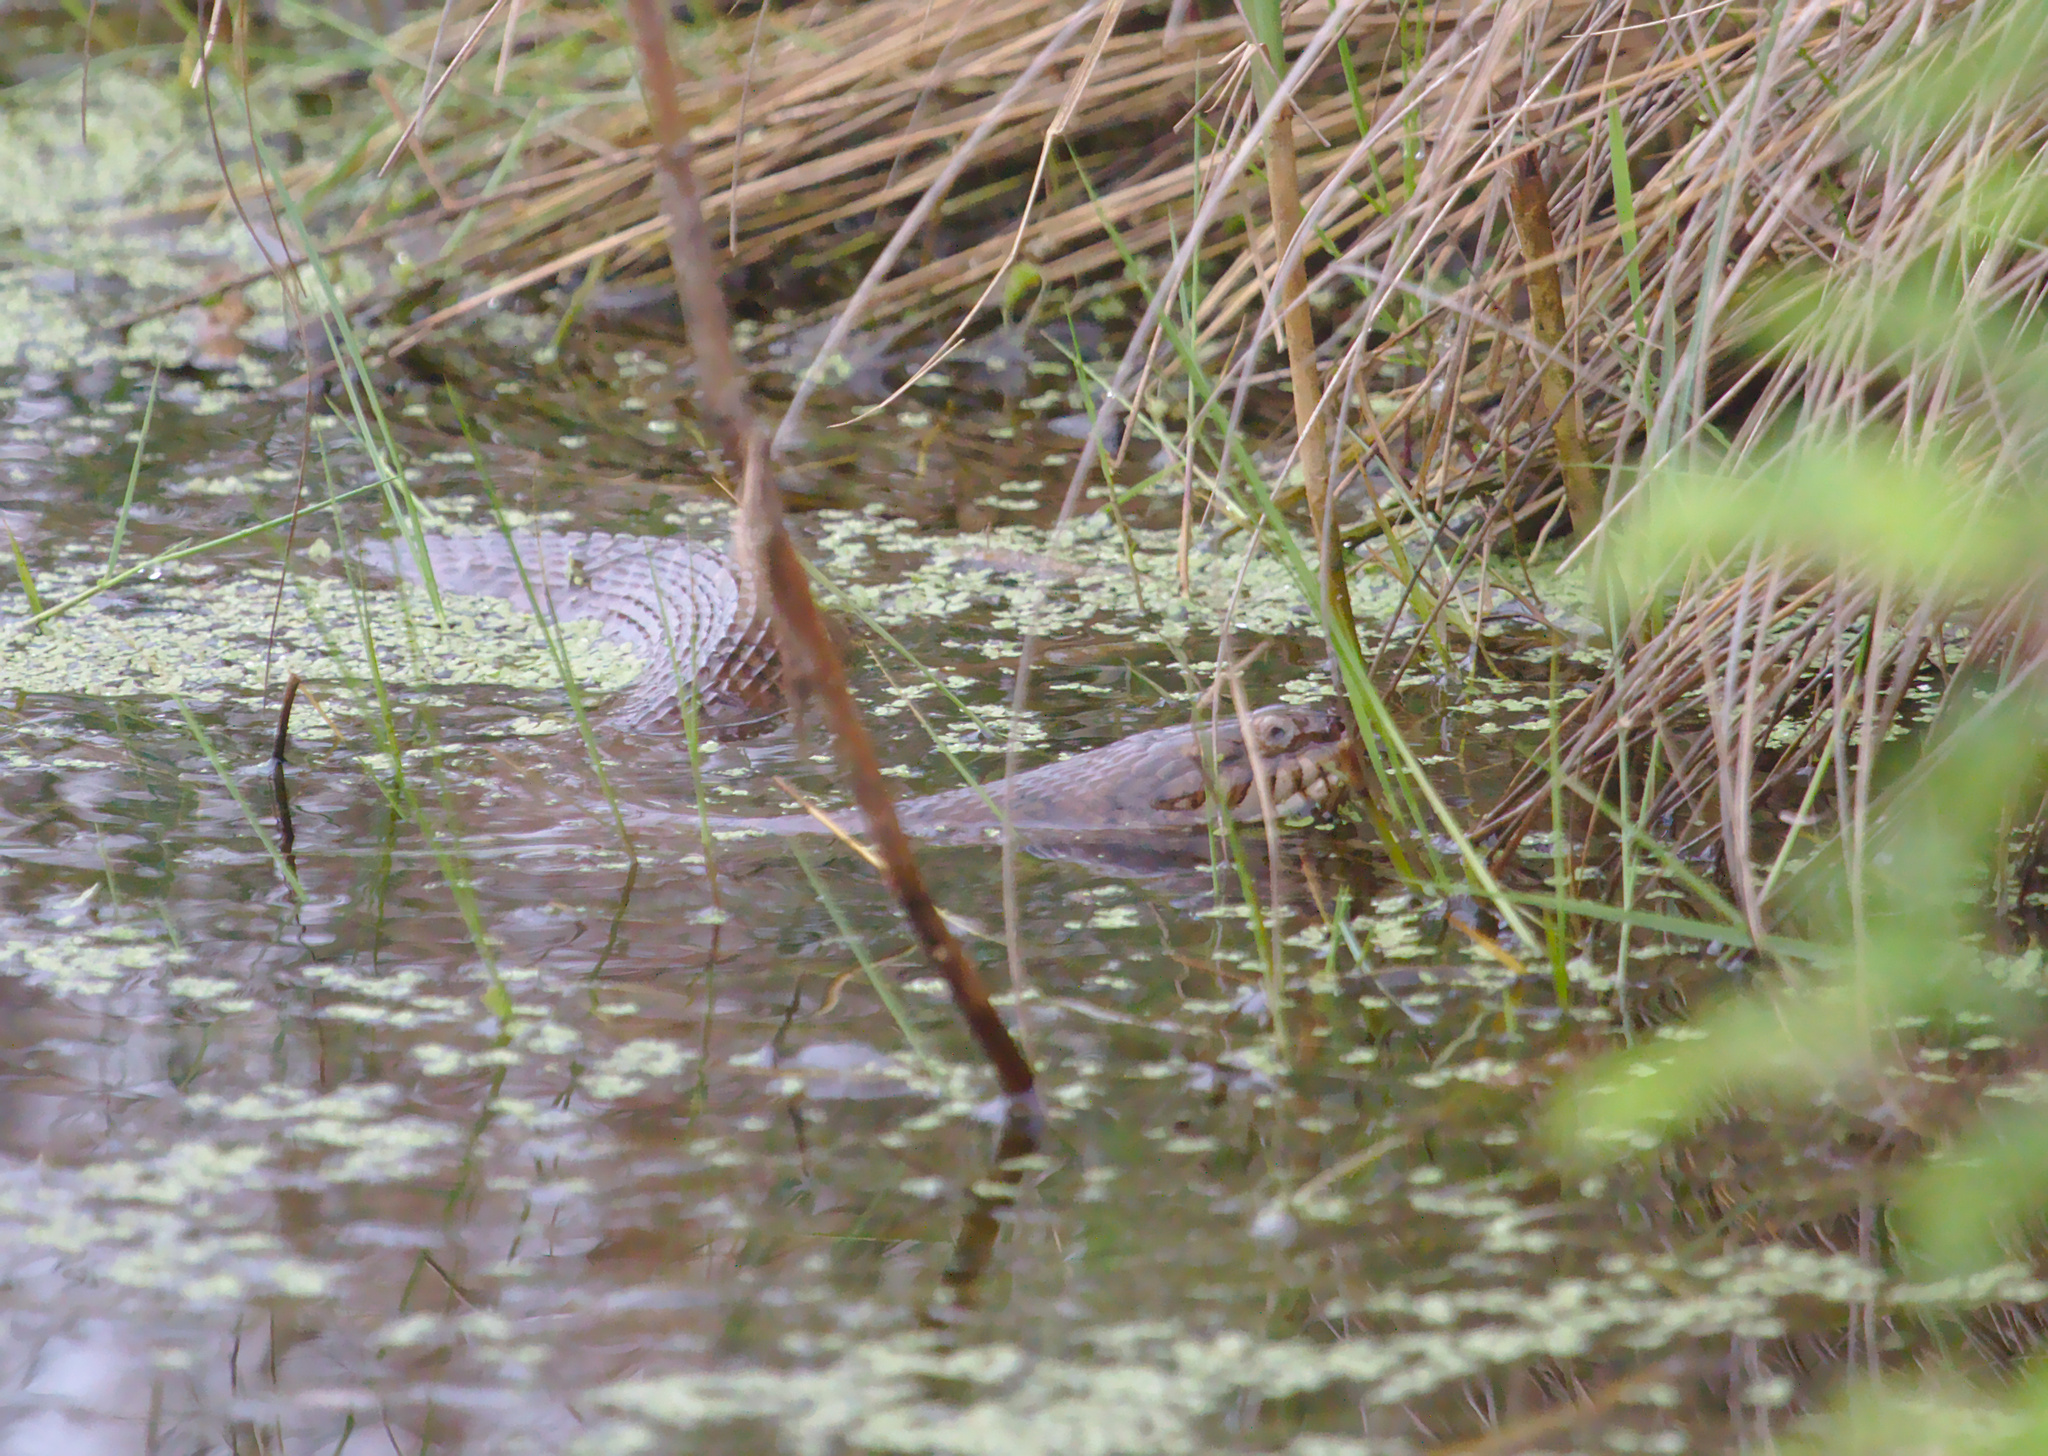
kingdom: Animalia
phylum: Chordata
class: Squamata
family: Colubridae
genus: Nerodia
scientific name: Nerodia sipedon
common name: Northern water snake
